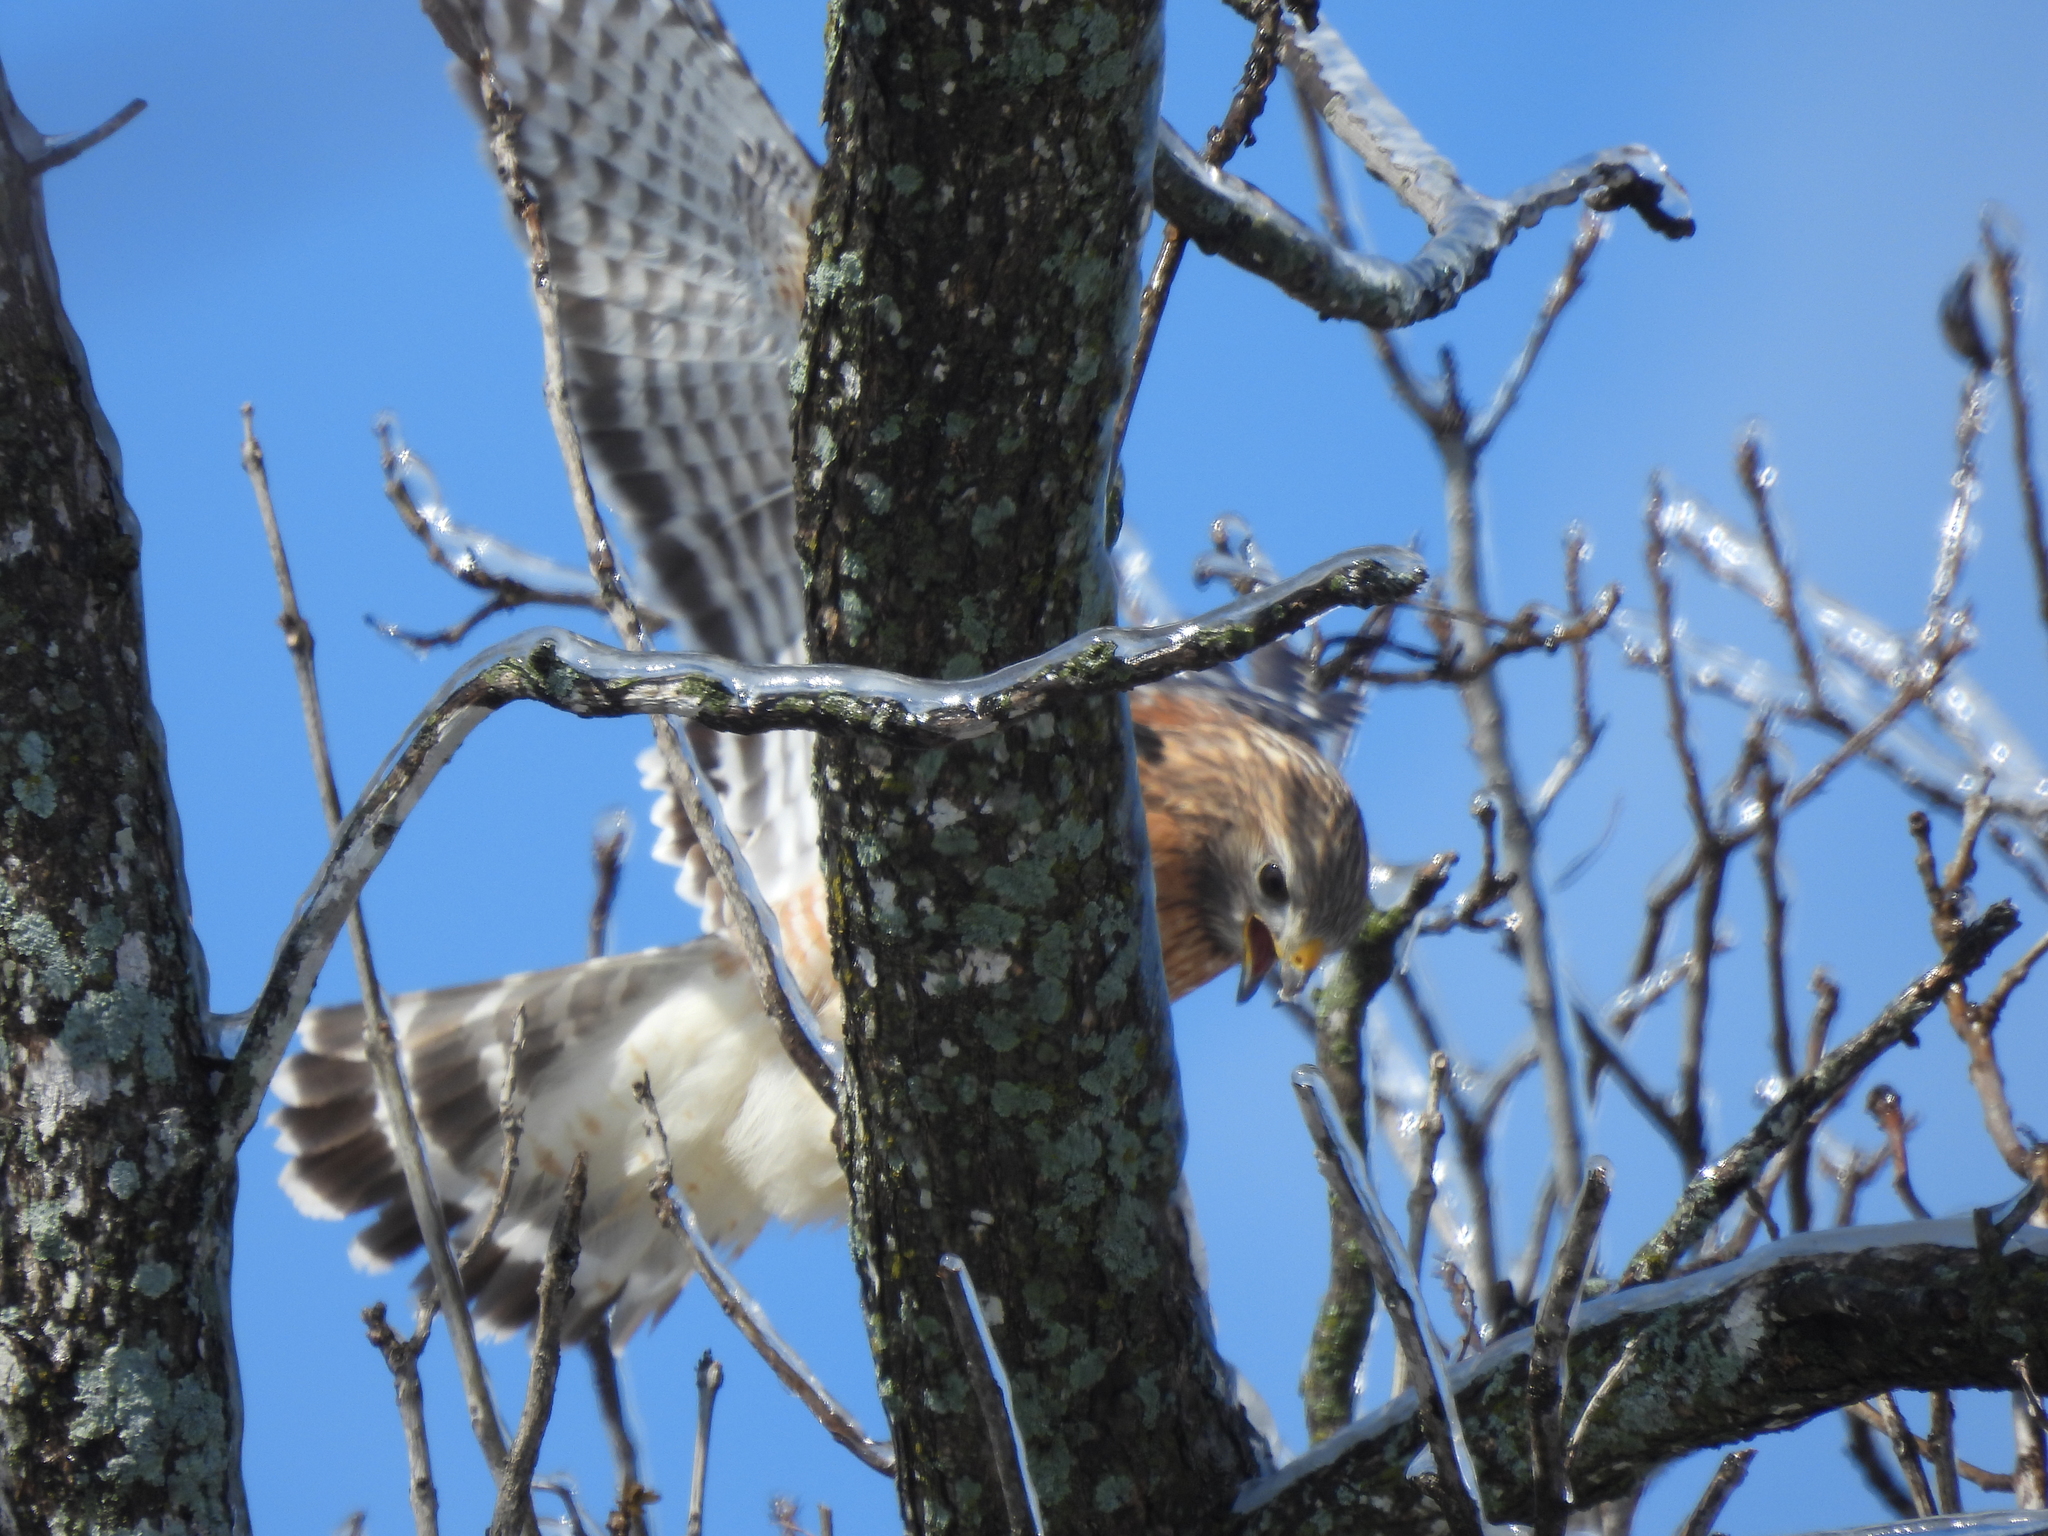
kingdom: Animalia
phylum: Chordata
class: Aves
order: Accipitriformes
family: Accipitridae
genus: Buteo
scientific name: Buteo lineatus
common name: Red-shouldered hawk
